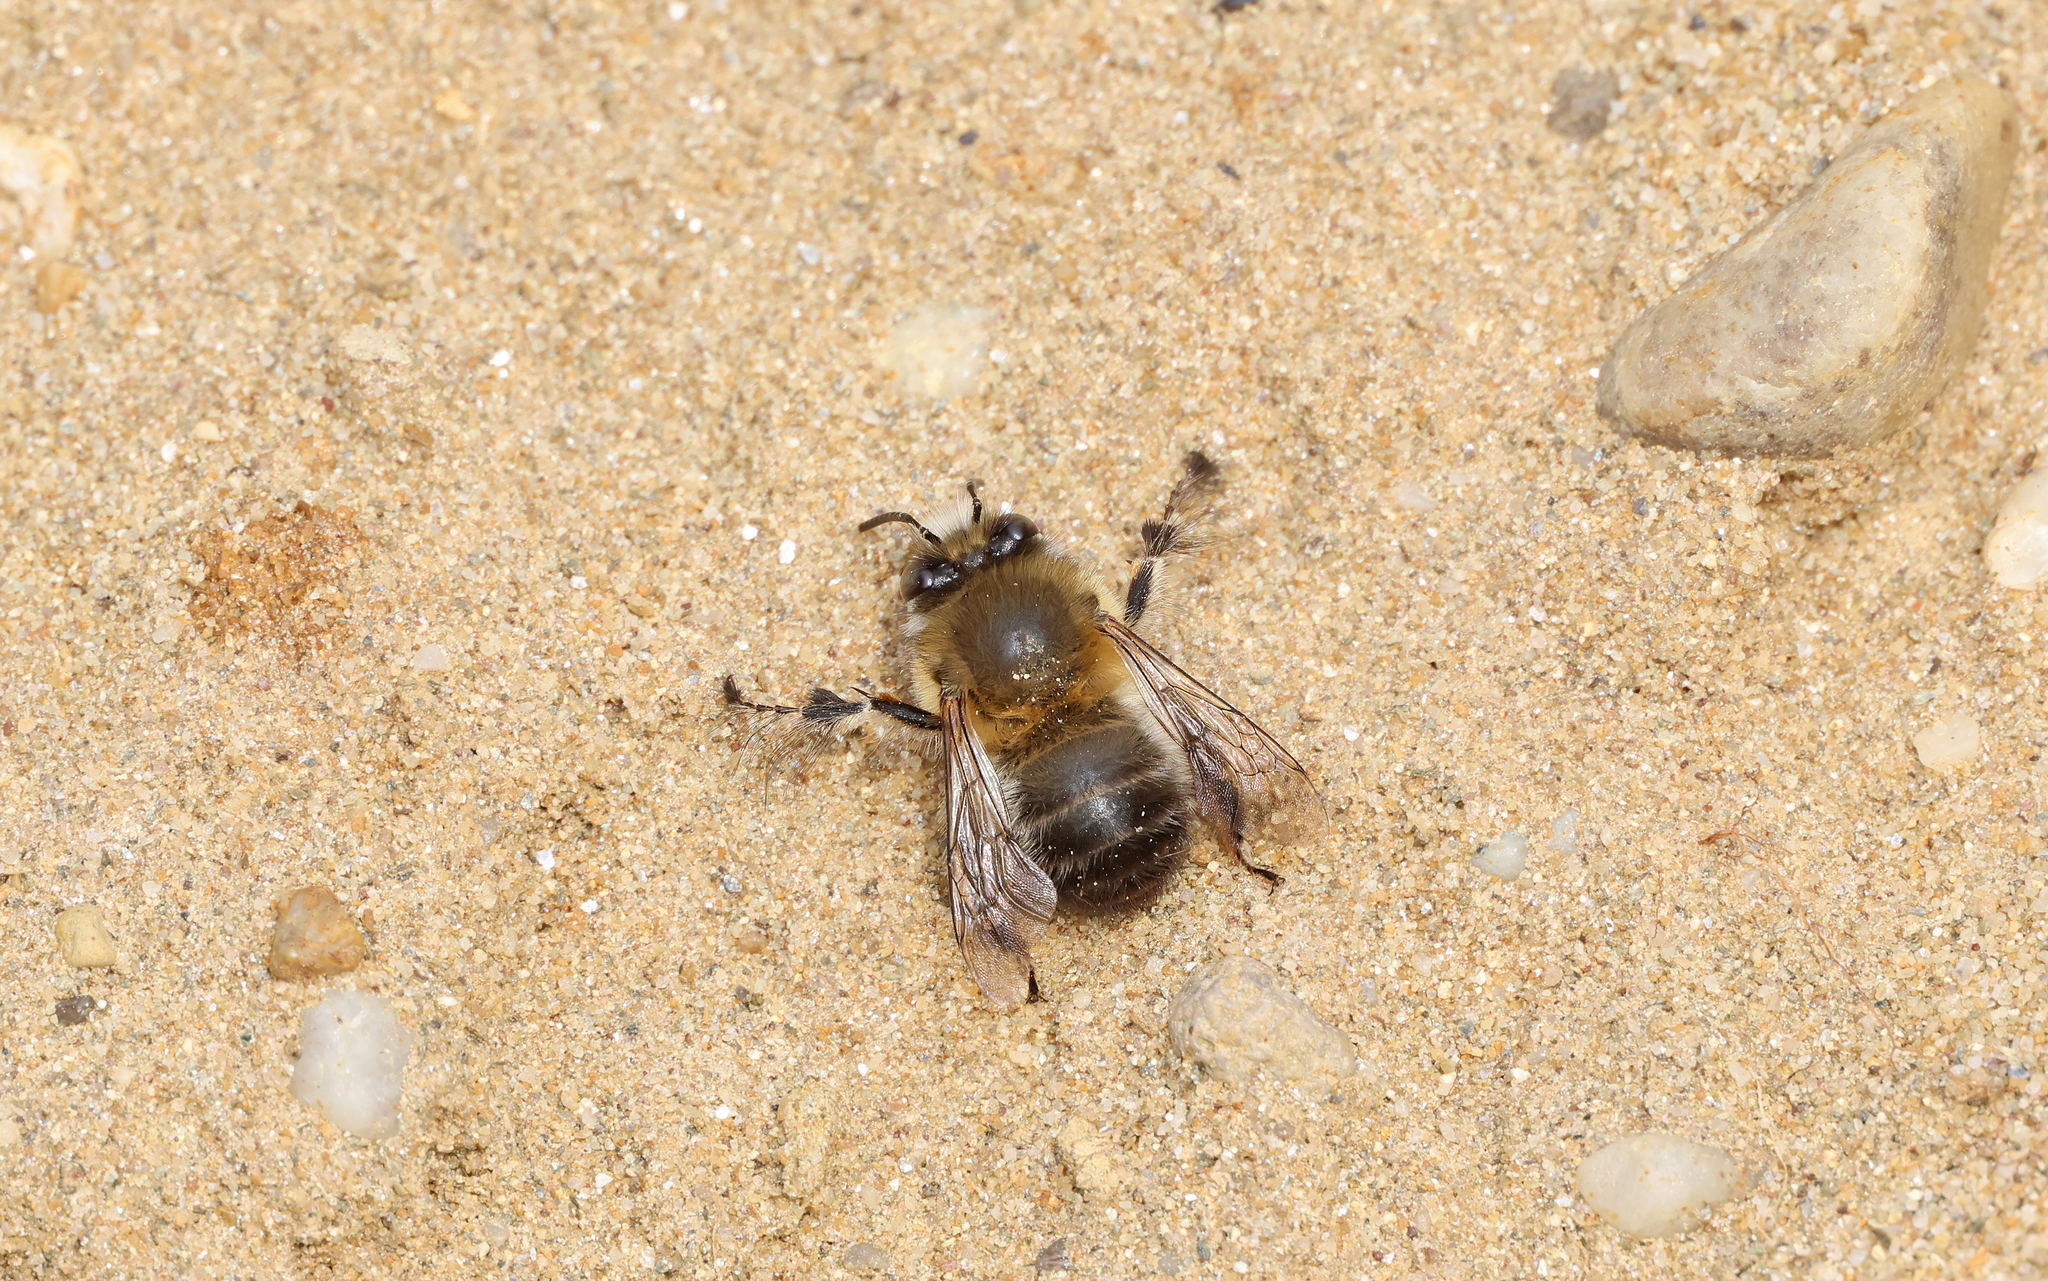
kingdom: Animalia
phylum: Arthropoda
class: Insecta
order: Hymenoptera
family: Apidae
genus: Anthophora
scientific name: Anthophora plumipes
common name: Hairy-footed flower bee
